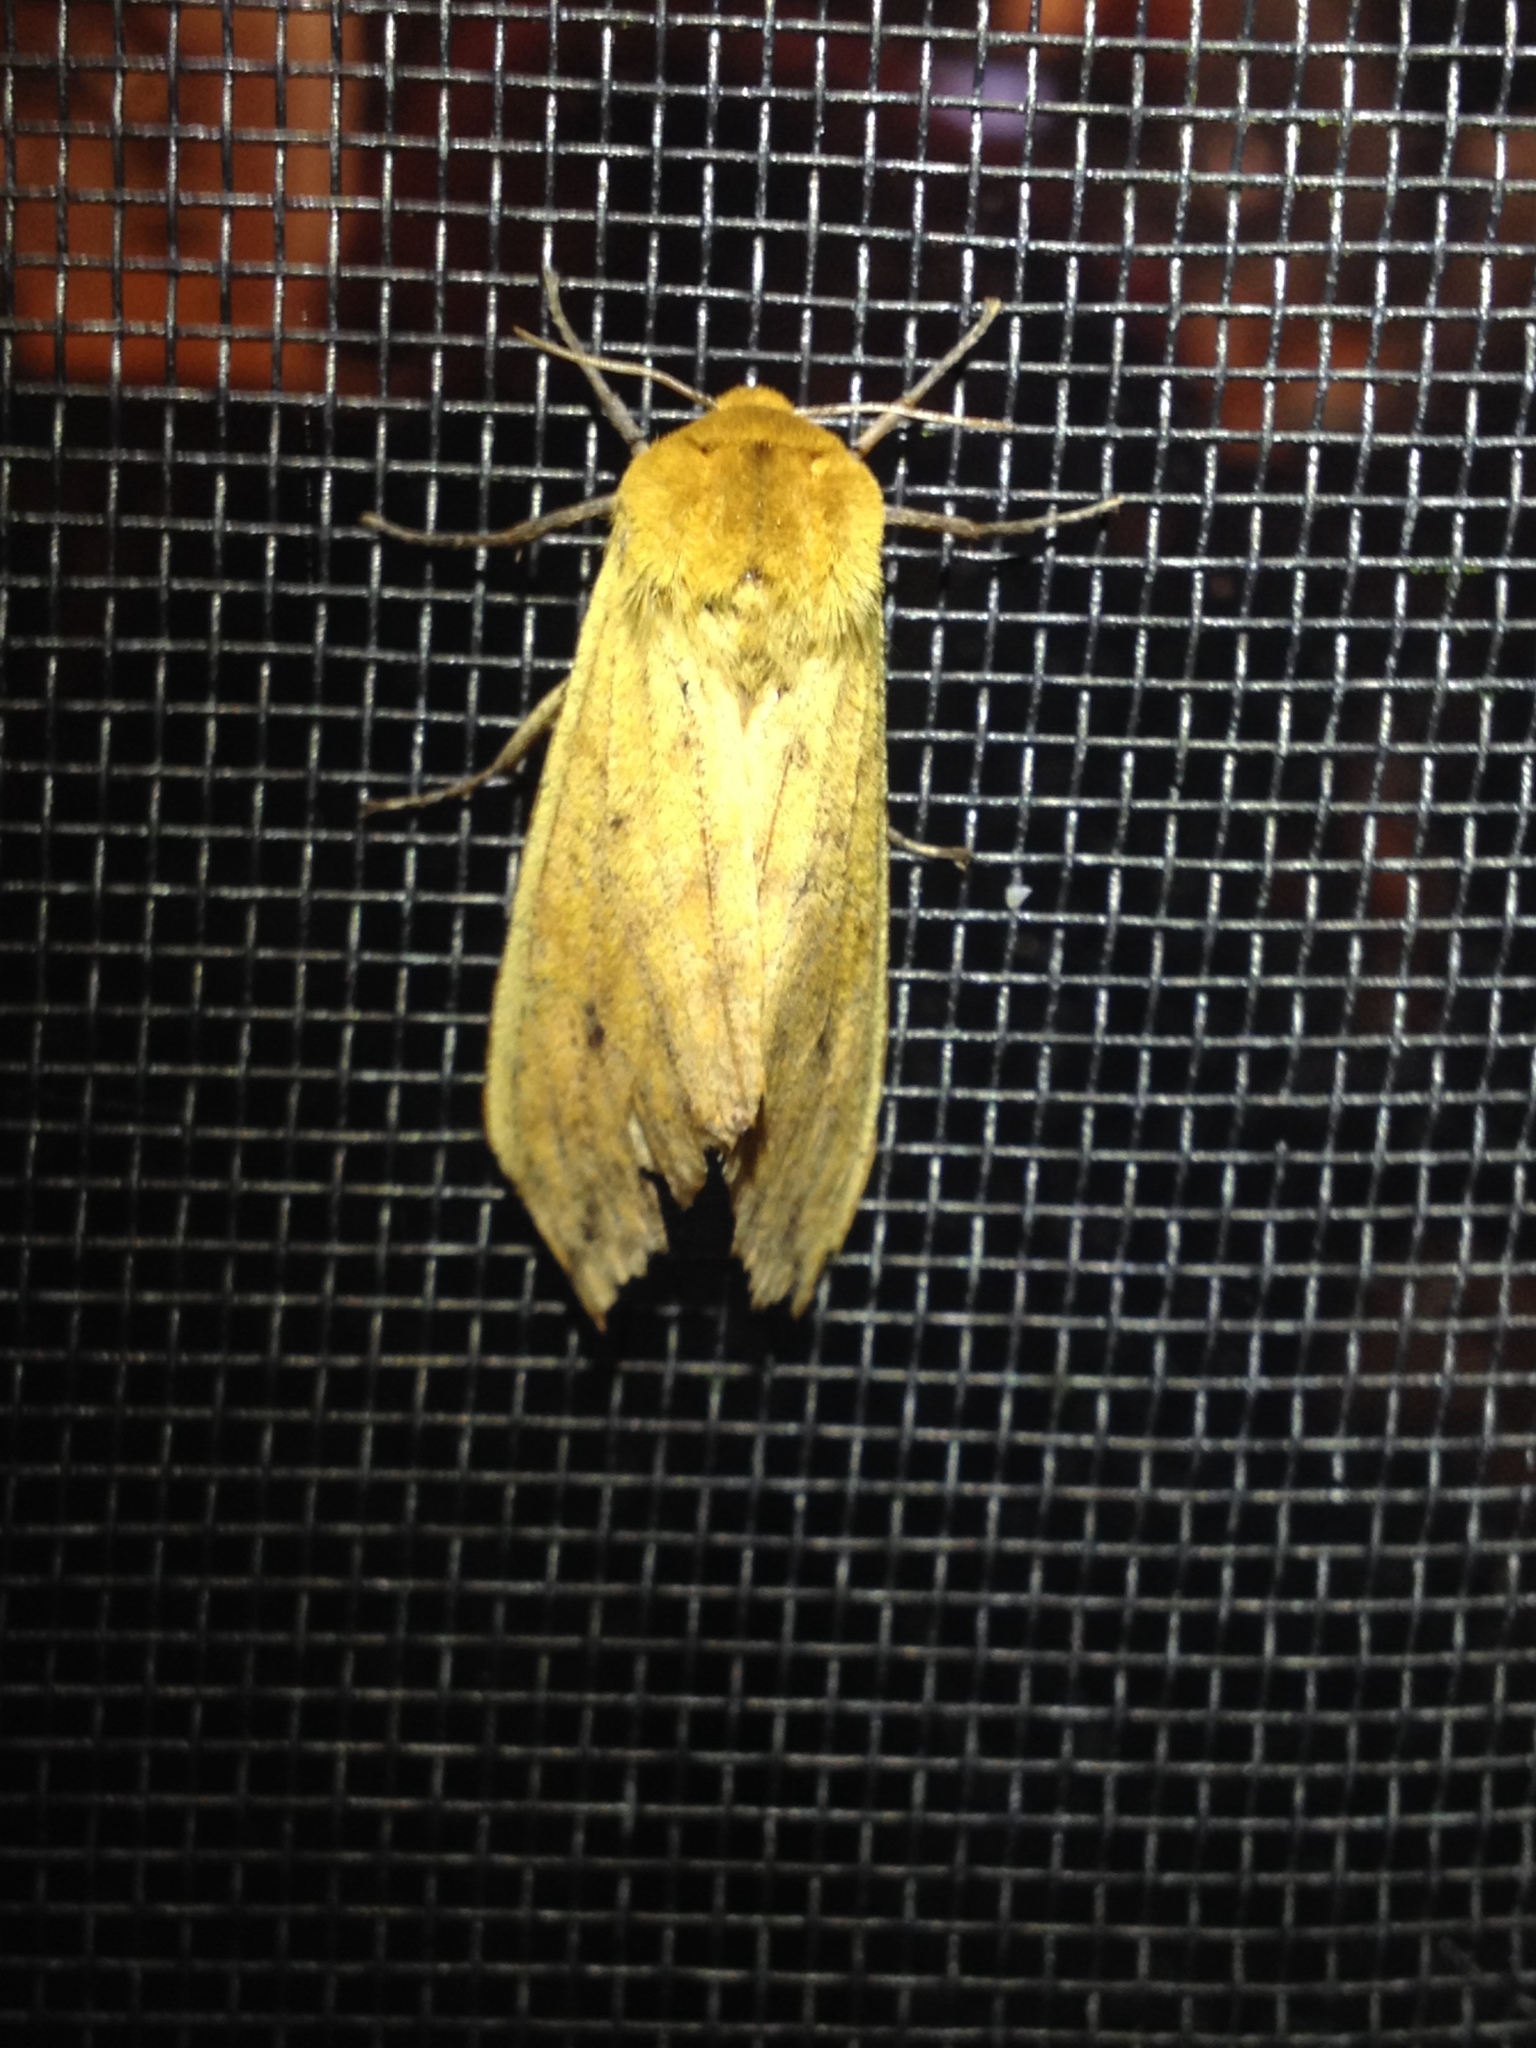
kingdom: Animalia
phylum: Arthropoda
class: Insecta
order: Lepidoptera
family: Erebidae
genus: Pyrrharctia
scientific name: Pyrrharctia isabella
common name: Isabella tiger moth
